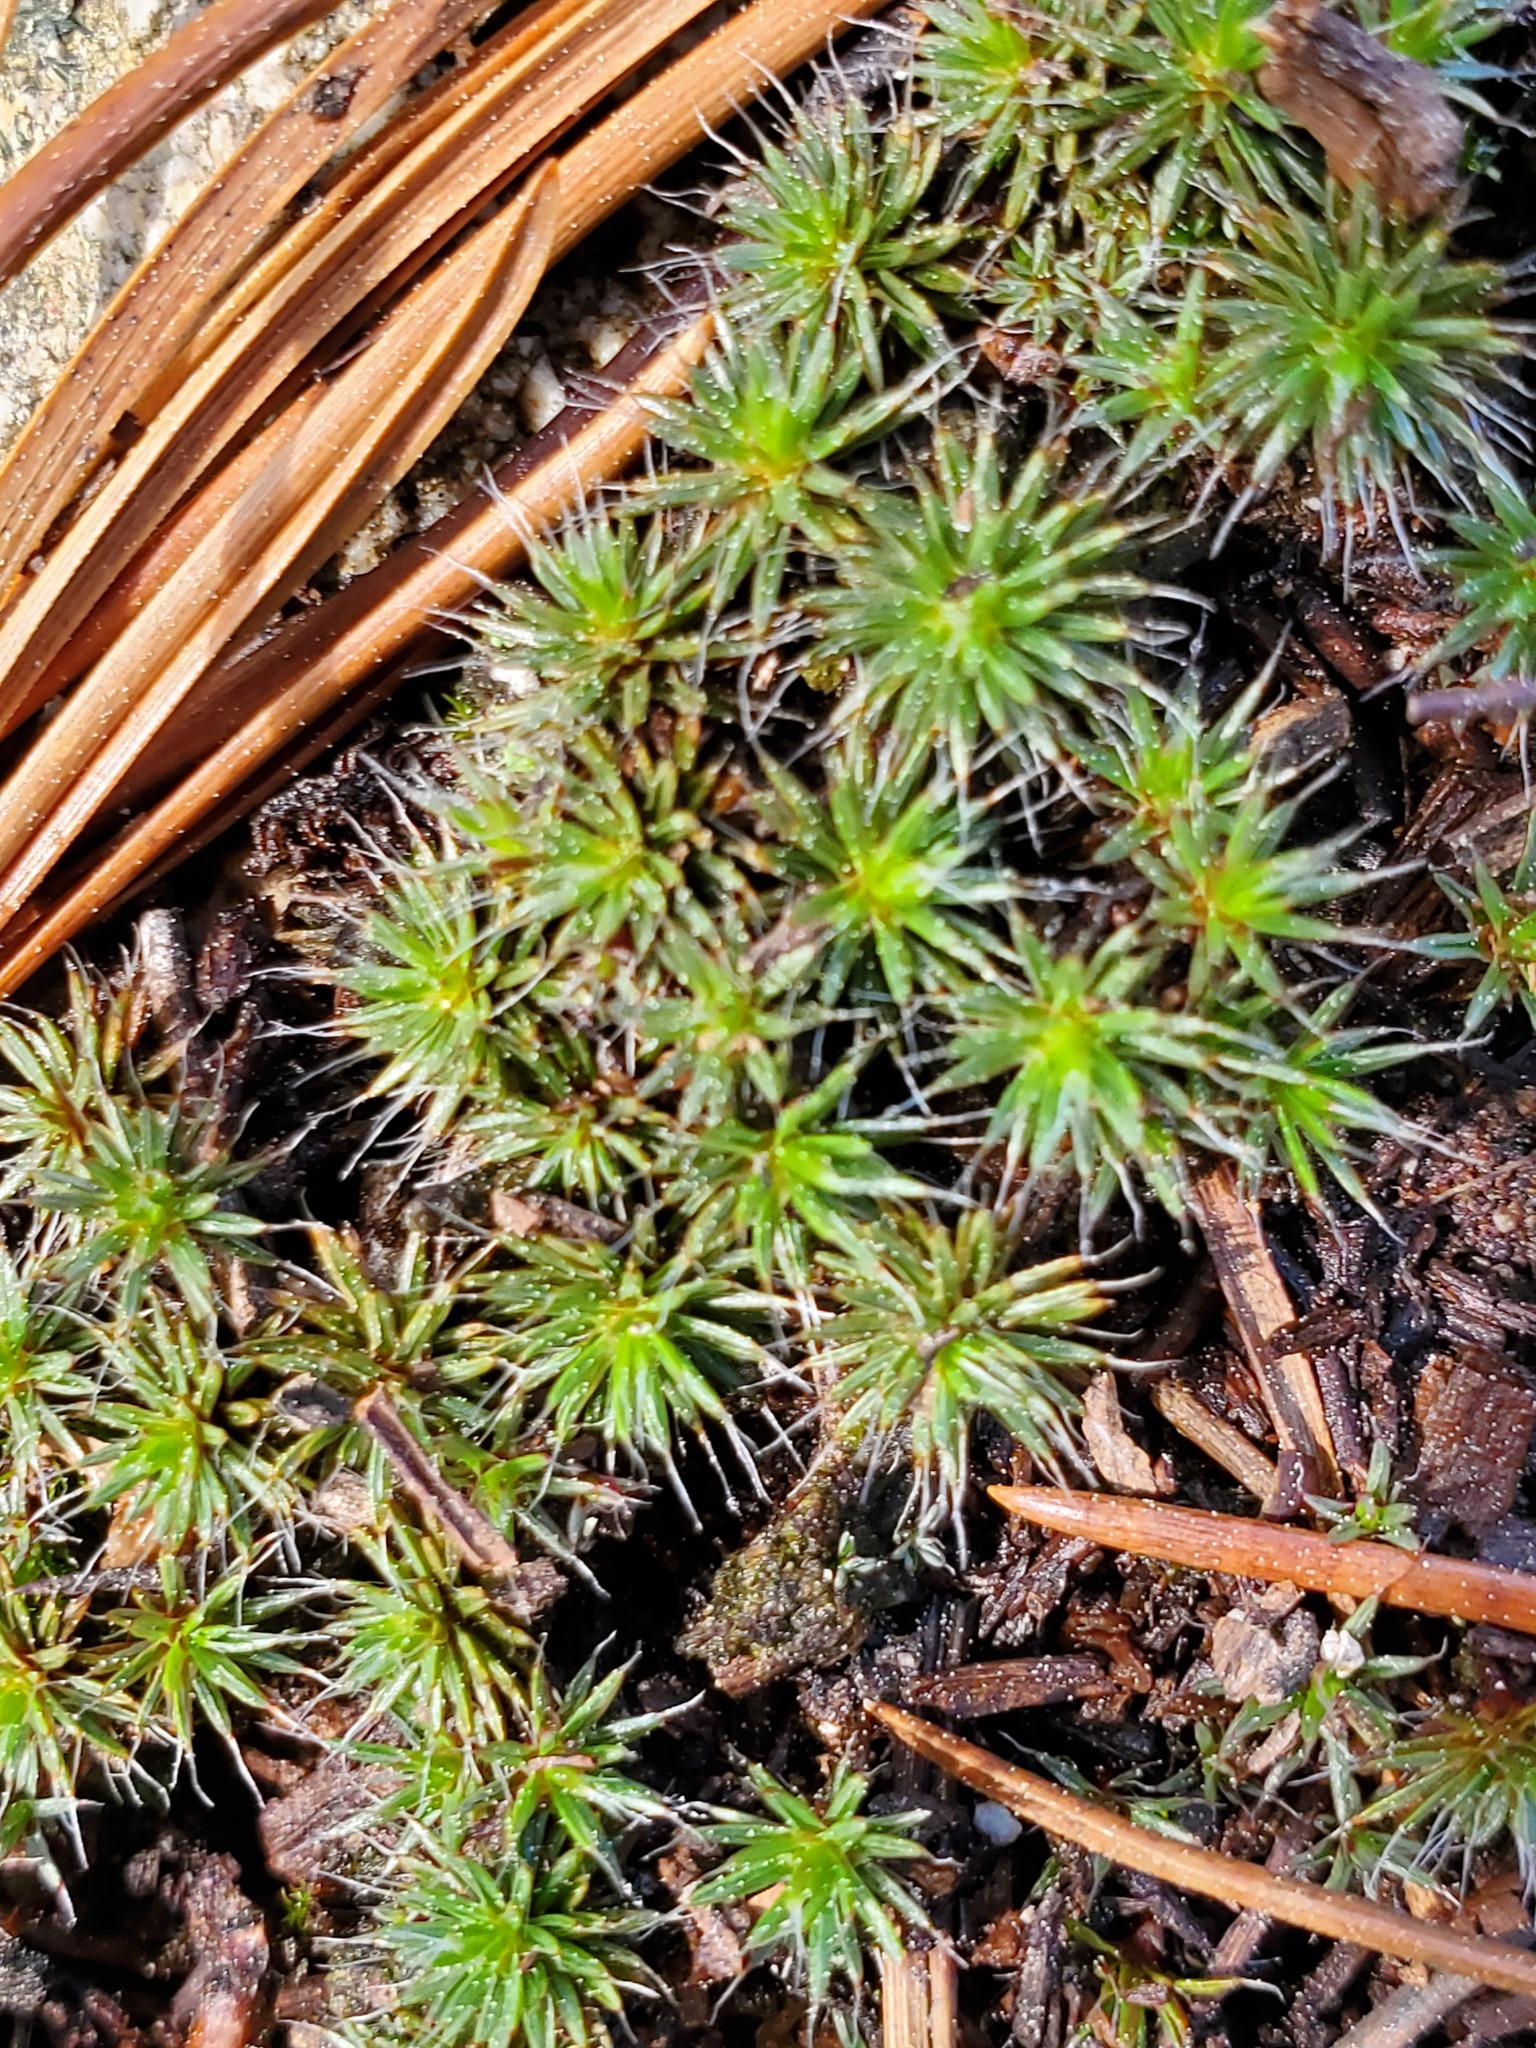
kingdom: Plantae
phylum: Bryophyta
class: Polytrichopsida
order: Polytrichales
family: Polytrichaceae
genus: Polytrichum
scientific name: Polytrichum piliferum
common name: Bristly haircap
